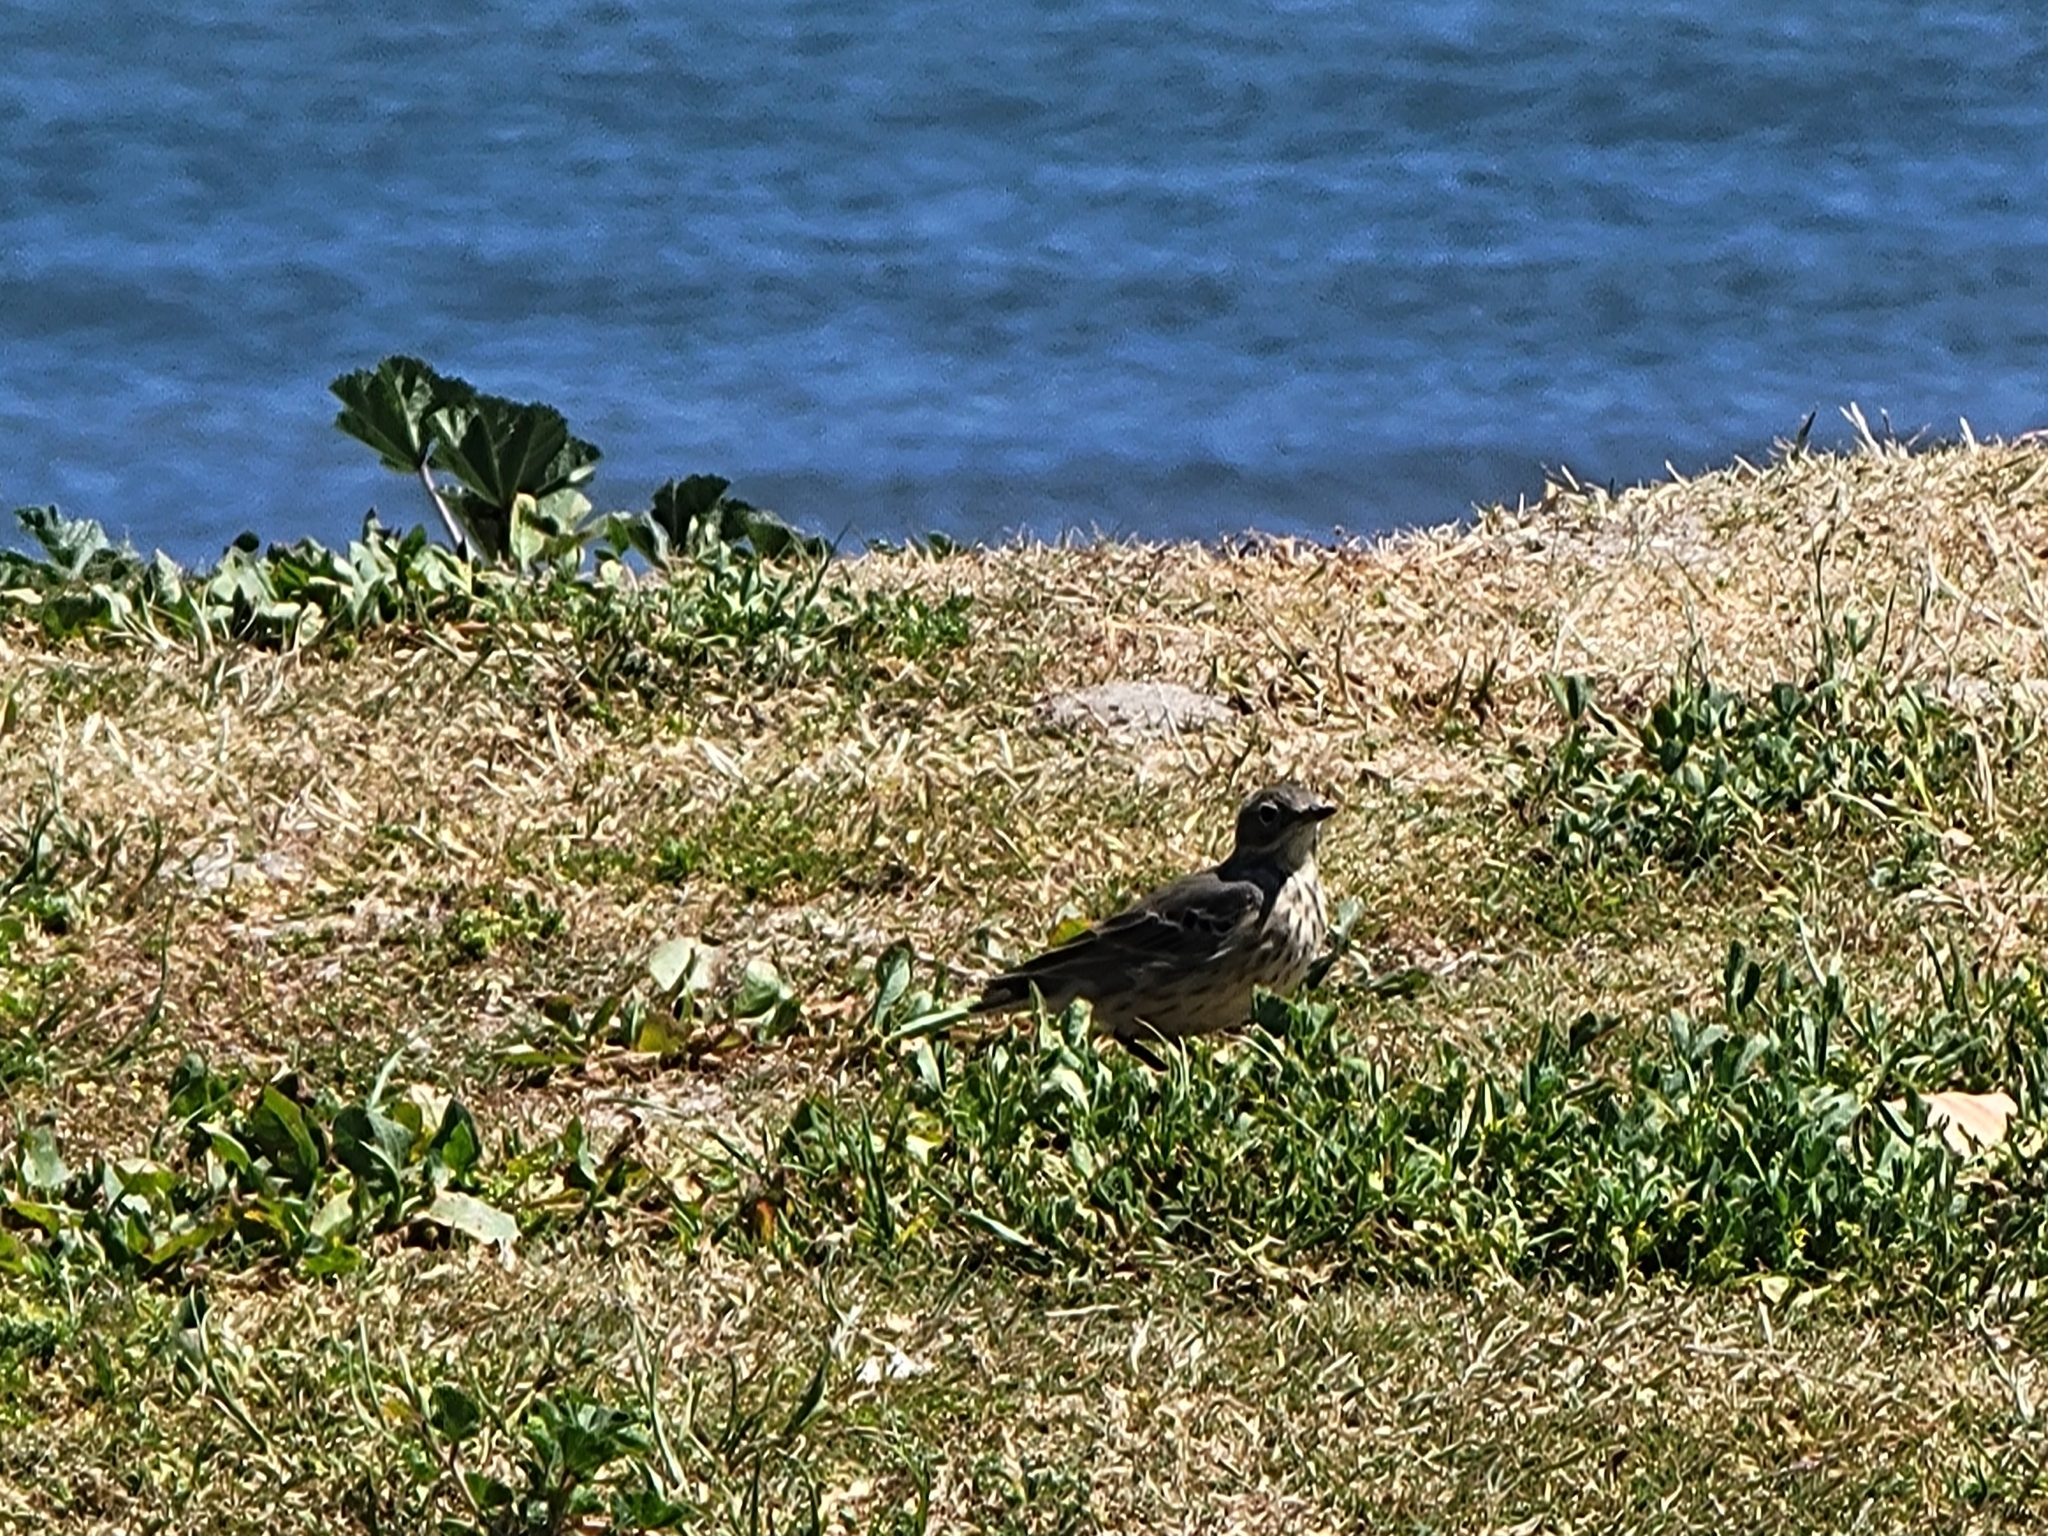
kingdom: Animalia
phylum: Chordata
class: Aves
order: Passeriformes
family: Motacillidae
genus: Anthus
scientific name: Anthus rubescens
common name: Buff-bellied pipit
